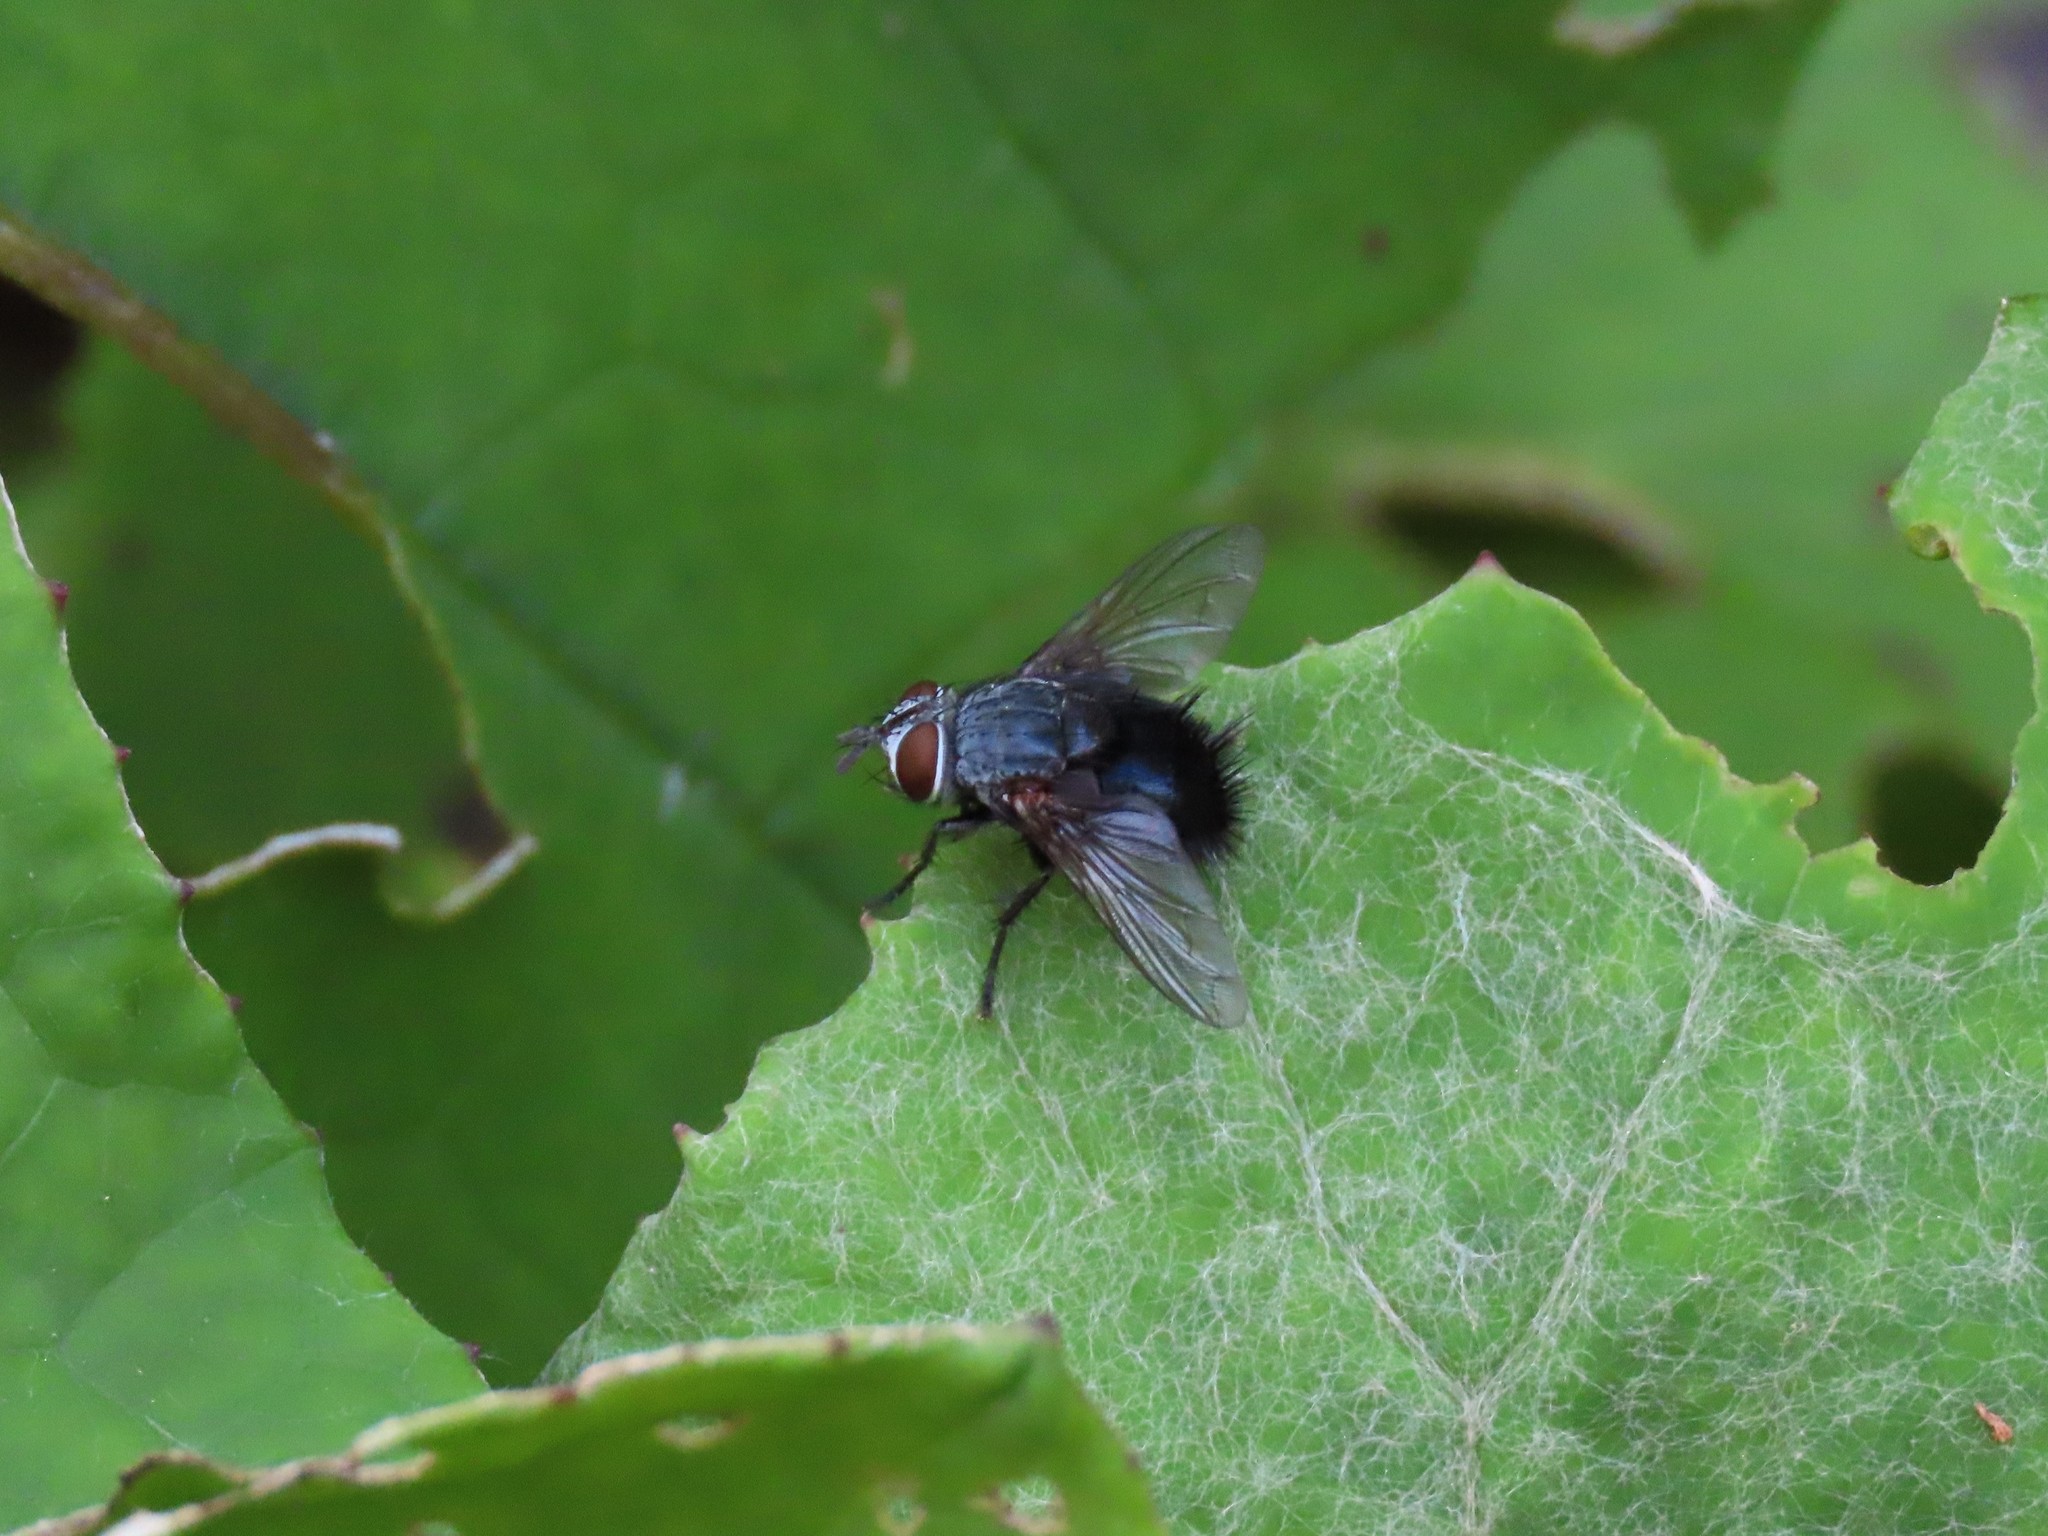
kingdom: Animalia
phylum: Arthropoda
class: Insecta
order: Diptera
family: Tachinidae
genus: Leschenaultia
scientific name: Leschenaultia
